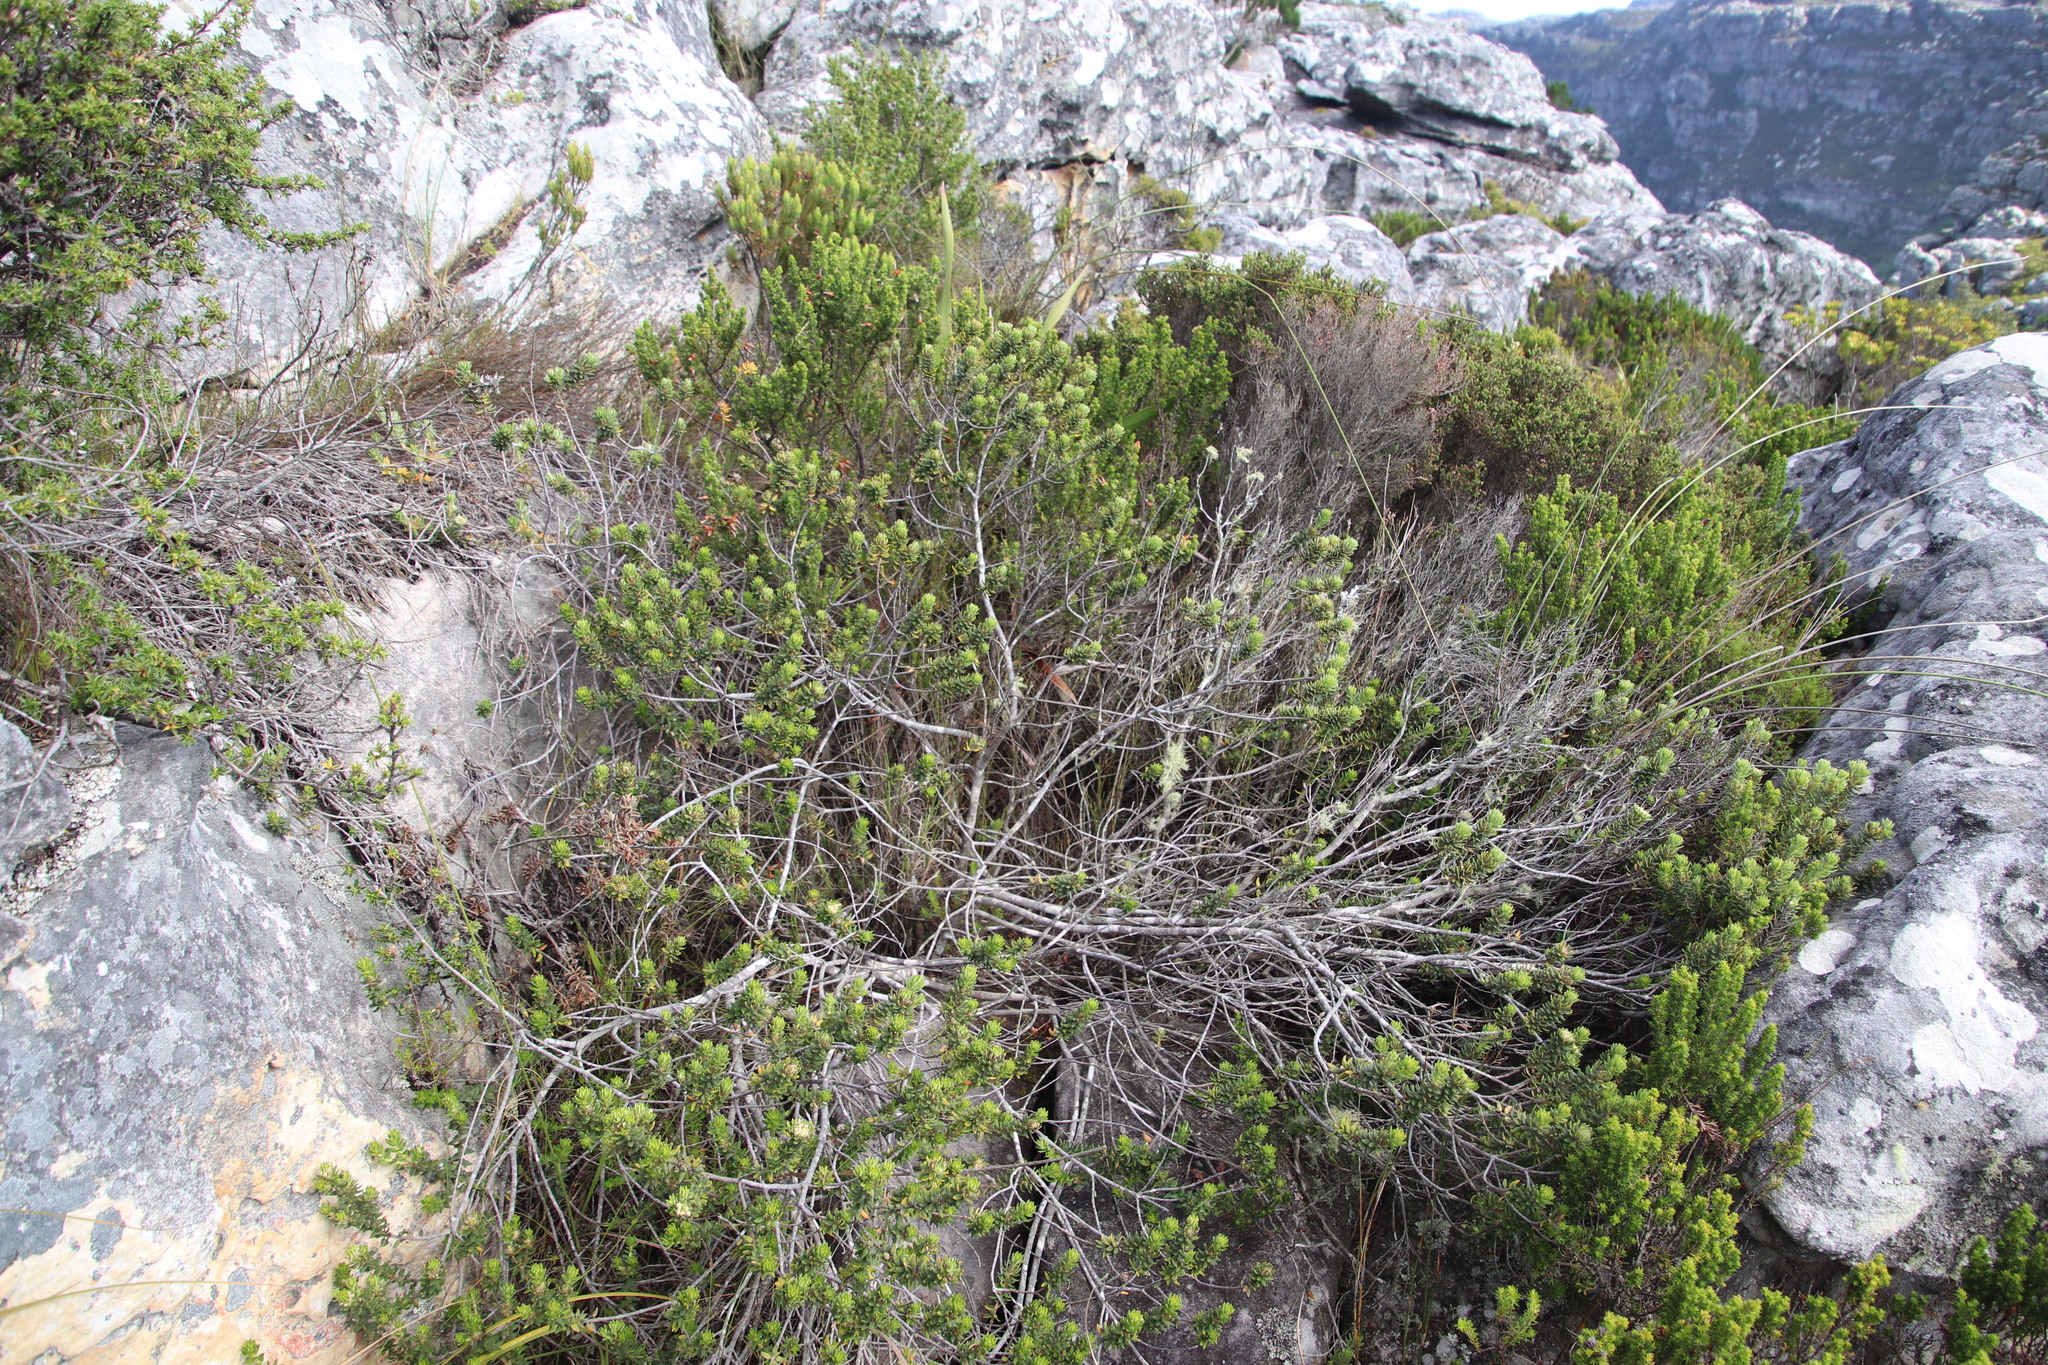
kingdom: Plantae
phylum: Tracheophyta
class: Magnoliopsida
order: Rosales
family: Rhamnaceae
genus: Phylica
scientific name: Phylica dioica
